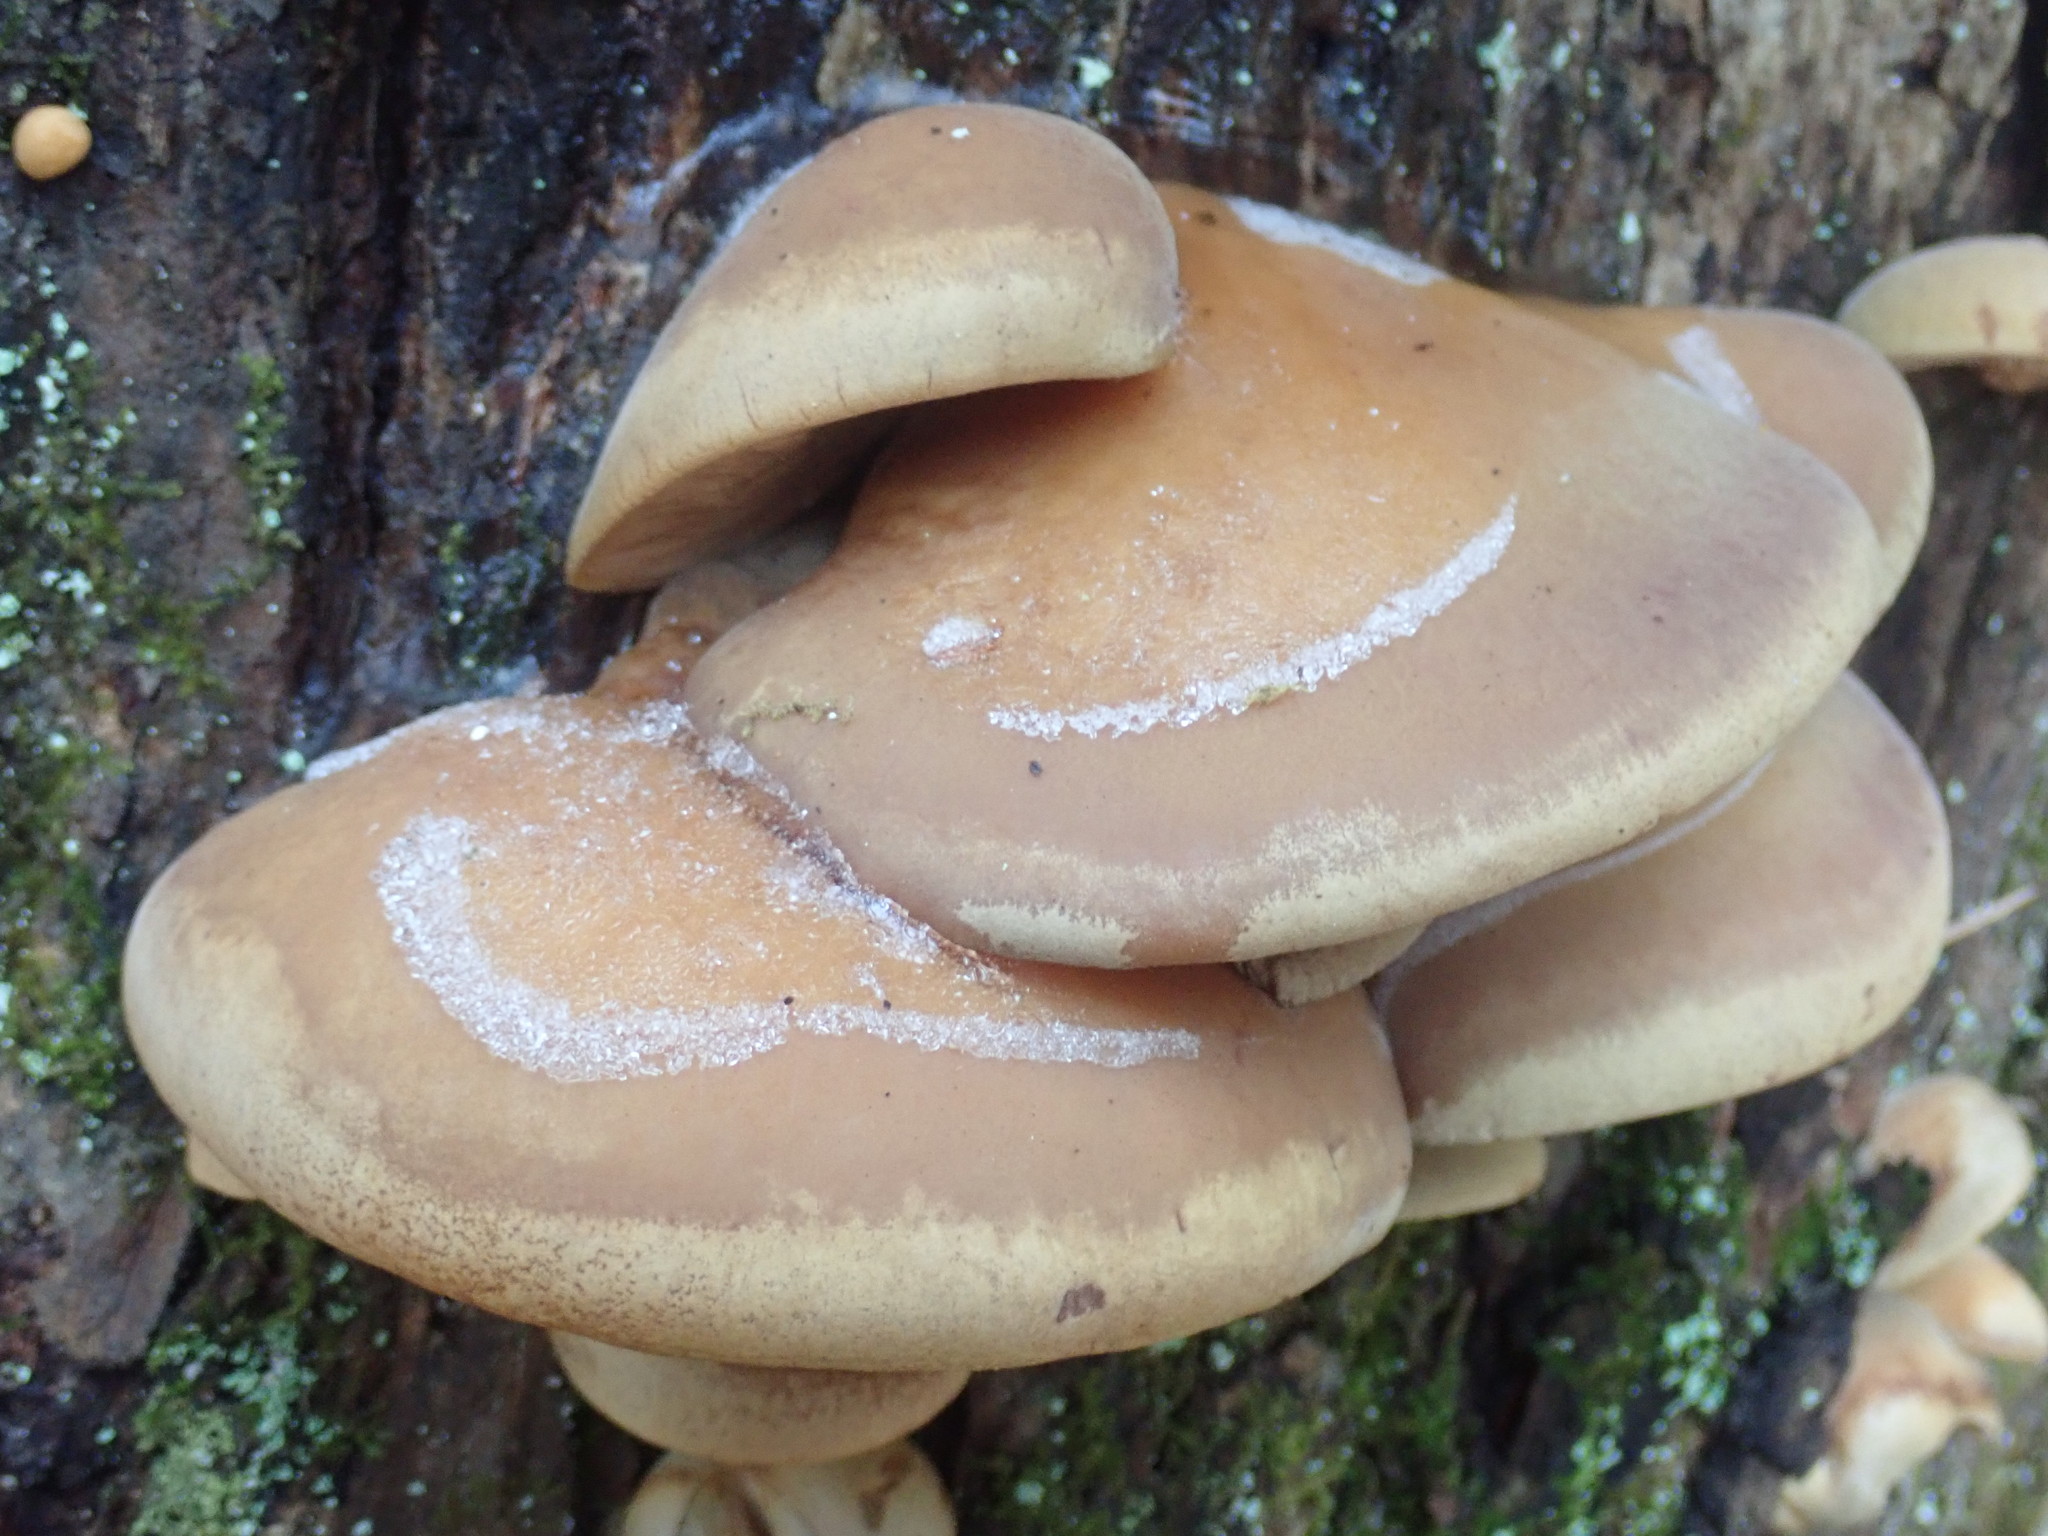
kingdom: Fungi
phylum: Basidiomycota
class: Agaricomycetes
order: Agaricales
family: Sarcomyxaceae
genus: Sarcomyxa
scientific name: Sarcomyxa serotina
